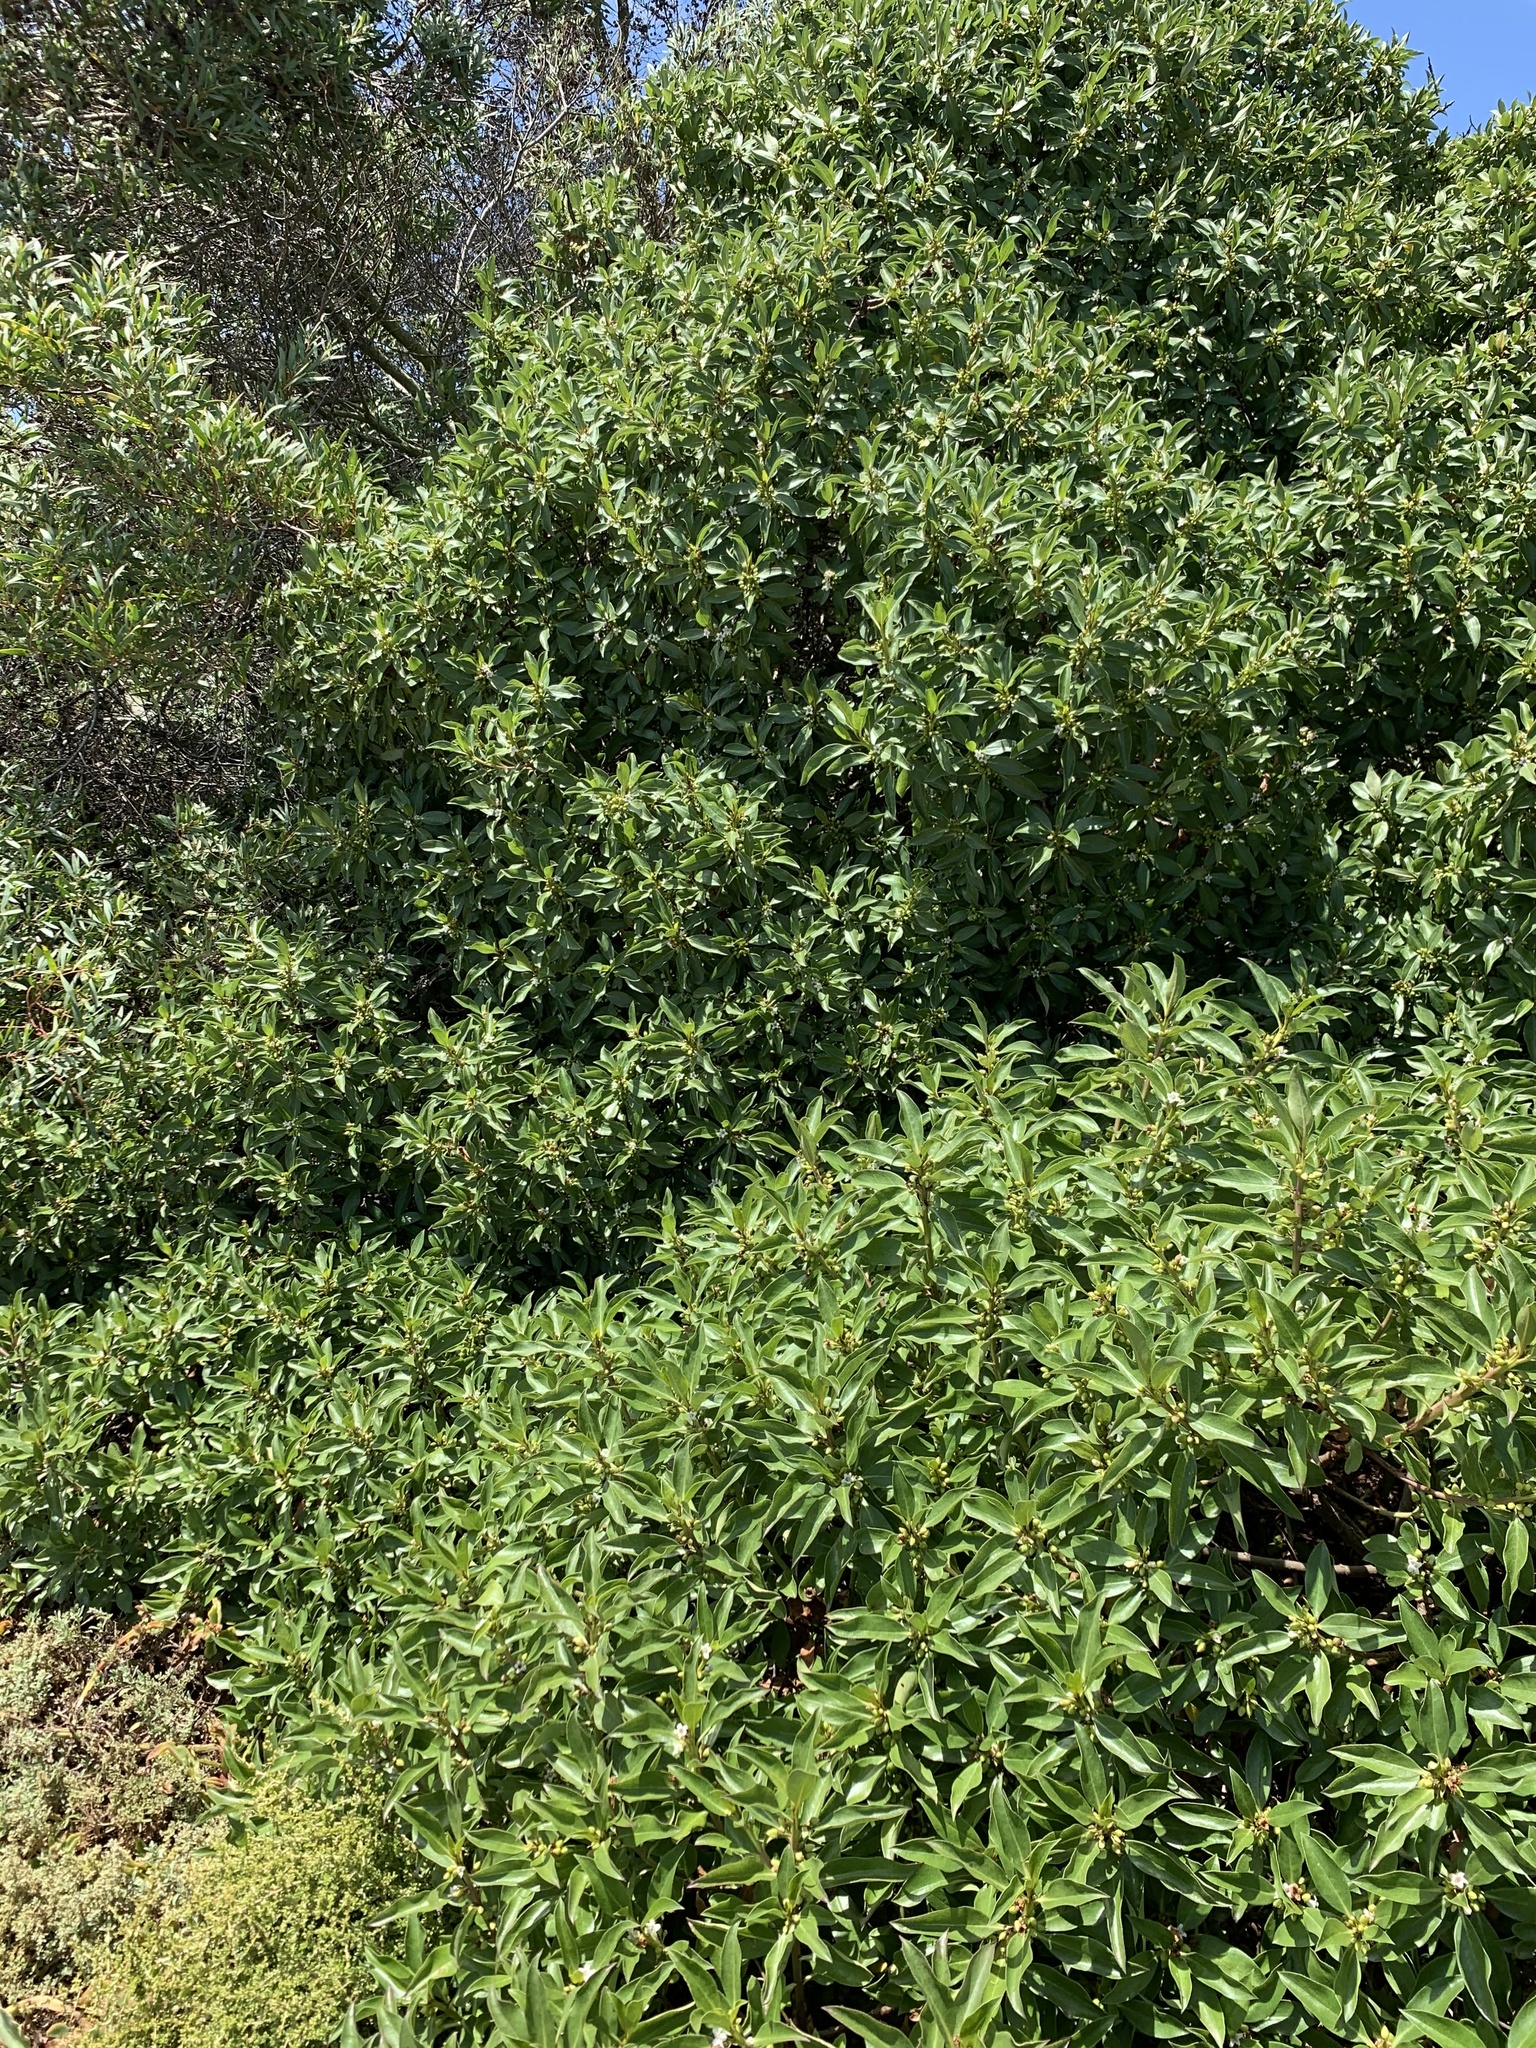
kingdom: Plantae
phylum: Tracheophyta
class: Magnoliopsida
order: Lamiales
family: Scrophulariaceae
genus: Myoporum
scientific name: Myoporum laetum
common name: Ngaio tree
